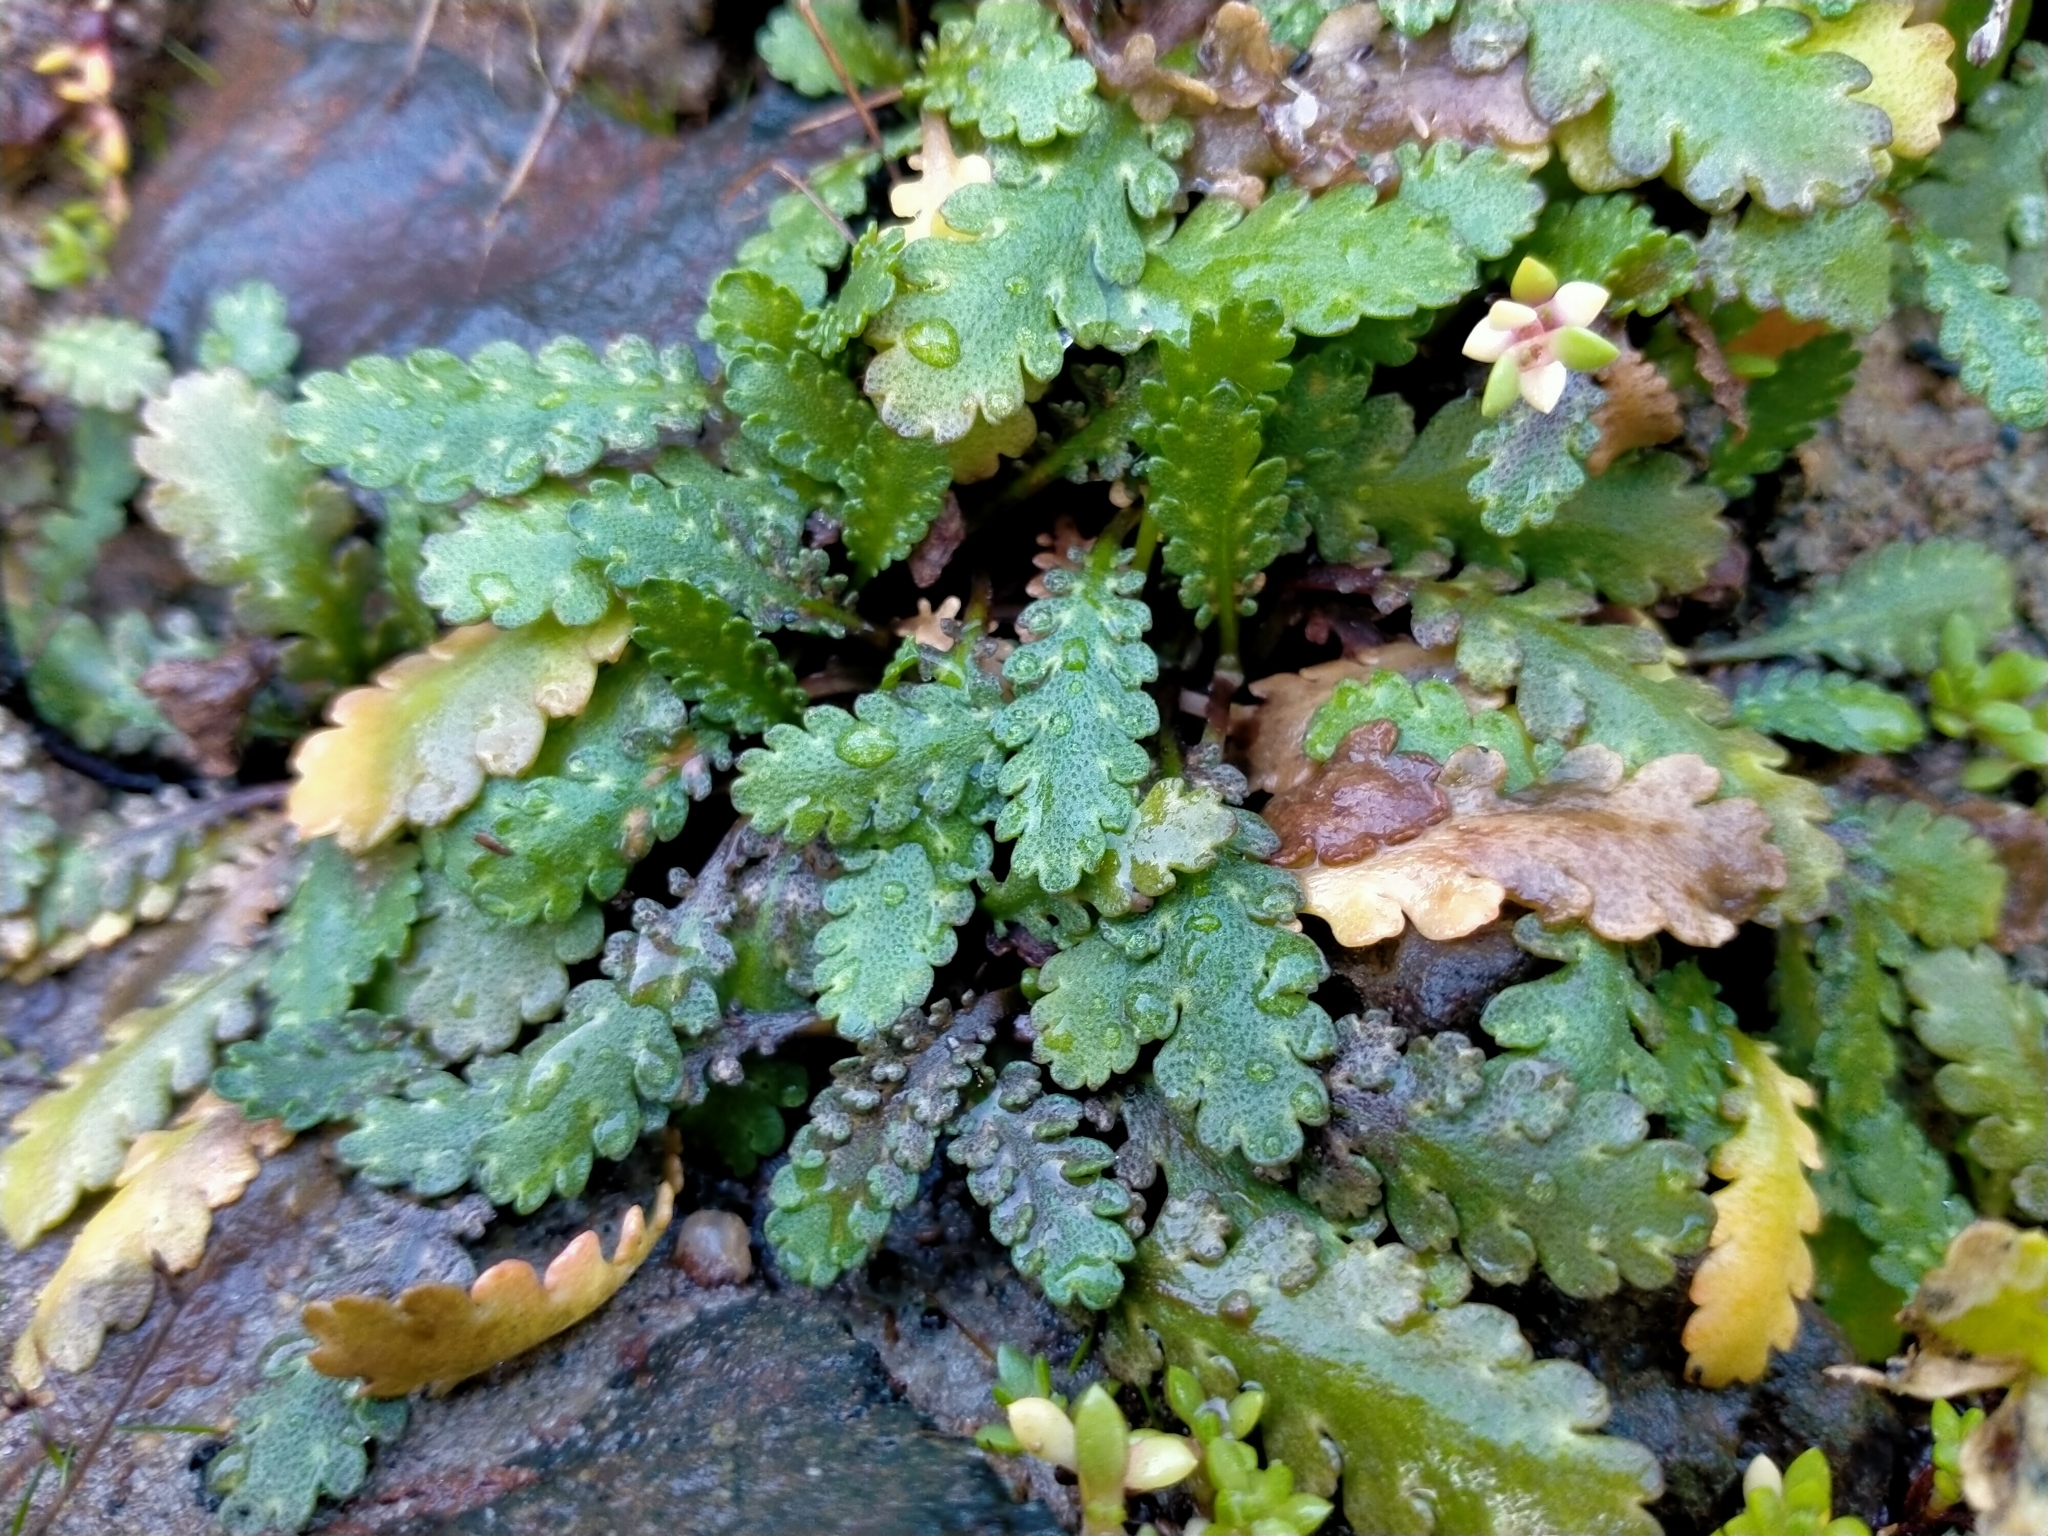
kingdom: Plantae
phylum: Tracheophyta
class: Magnoliopsida
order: Asterales
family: Asteraceae
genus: Leptinella
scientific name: Leptinella dioica
